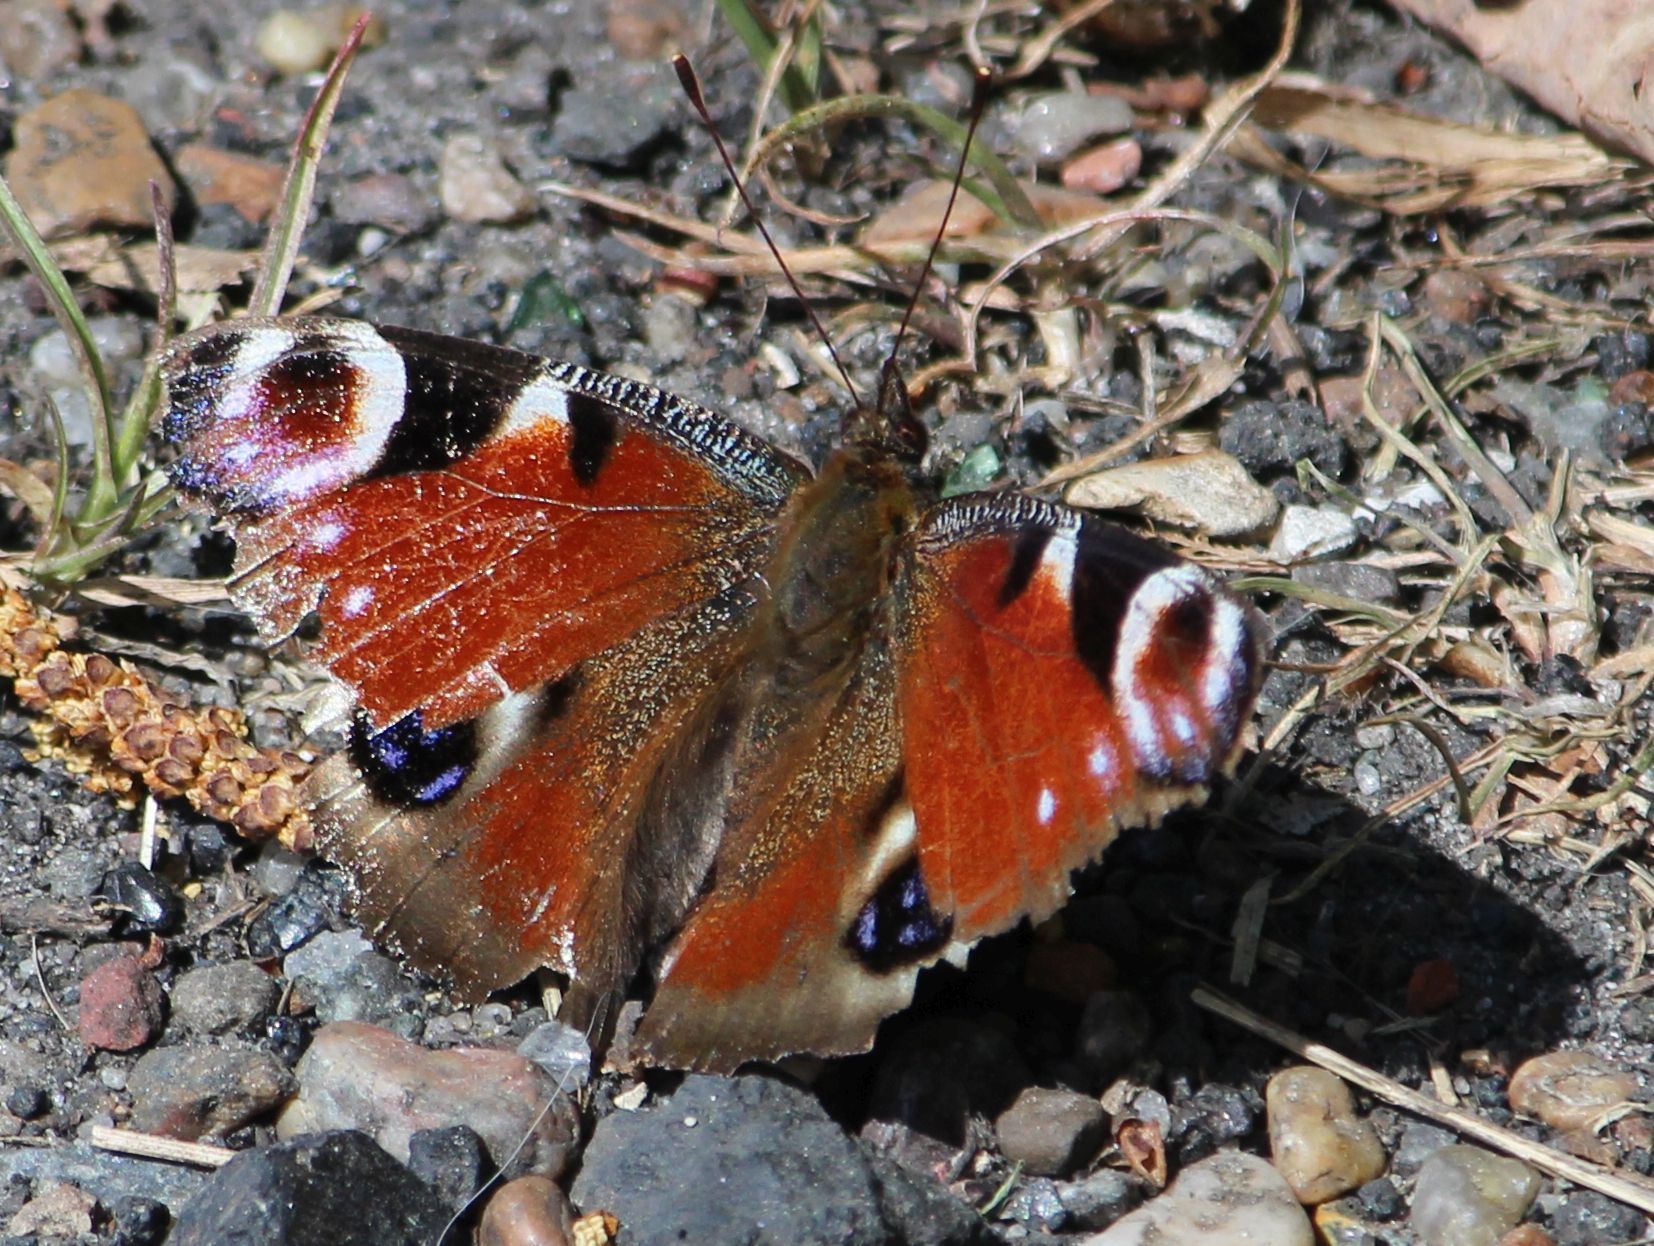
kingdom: Animalia
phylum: Arthropoda
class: Insecta
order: Lepidoptera
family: Nymphalidae
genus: Aglais
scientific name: Aglais io
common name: Peacock
